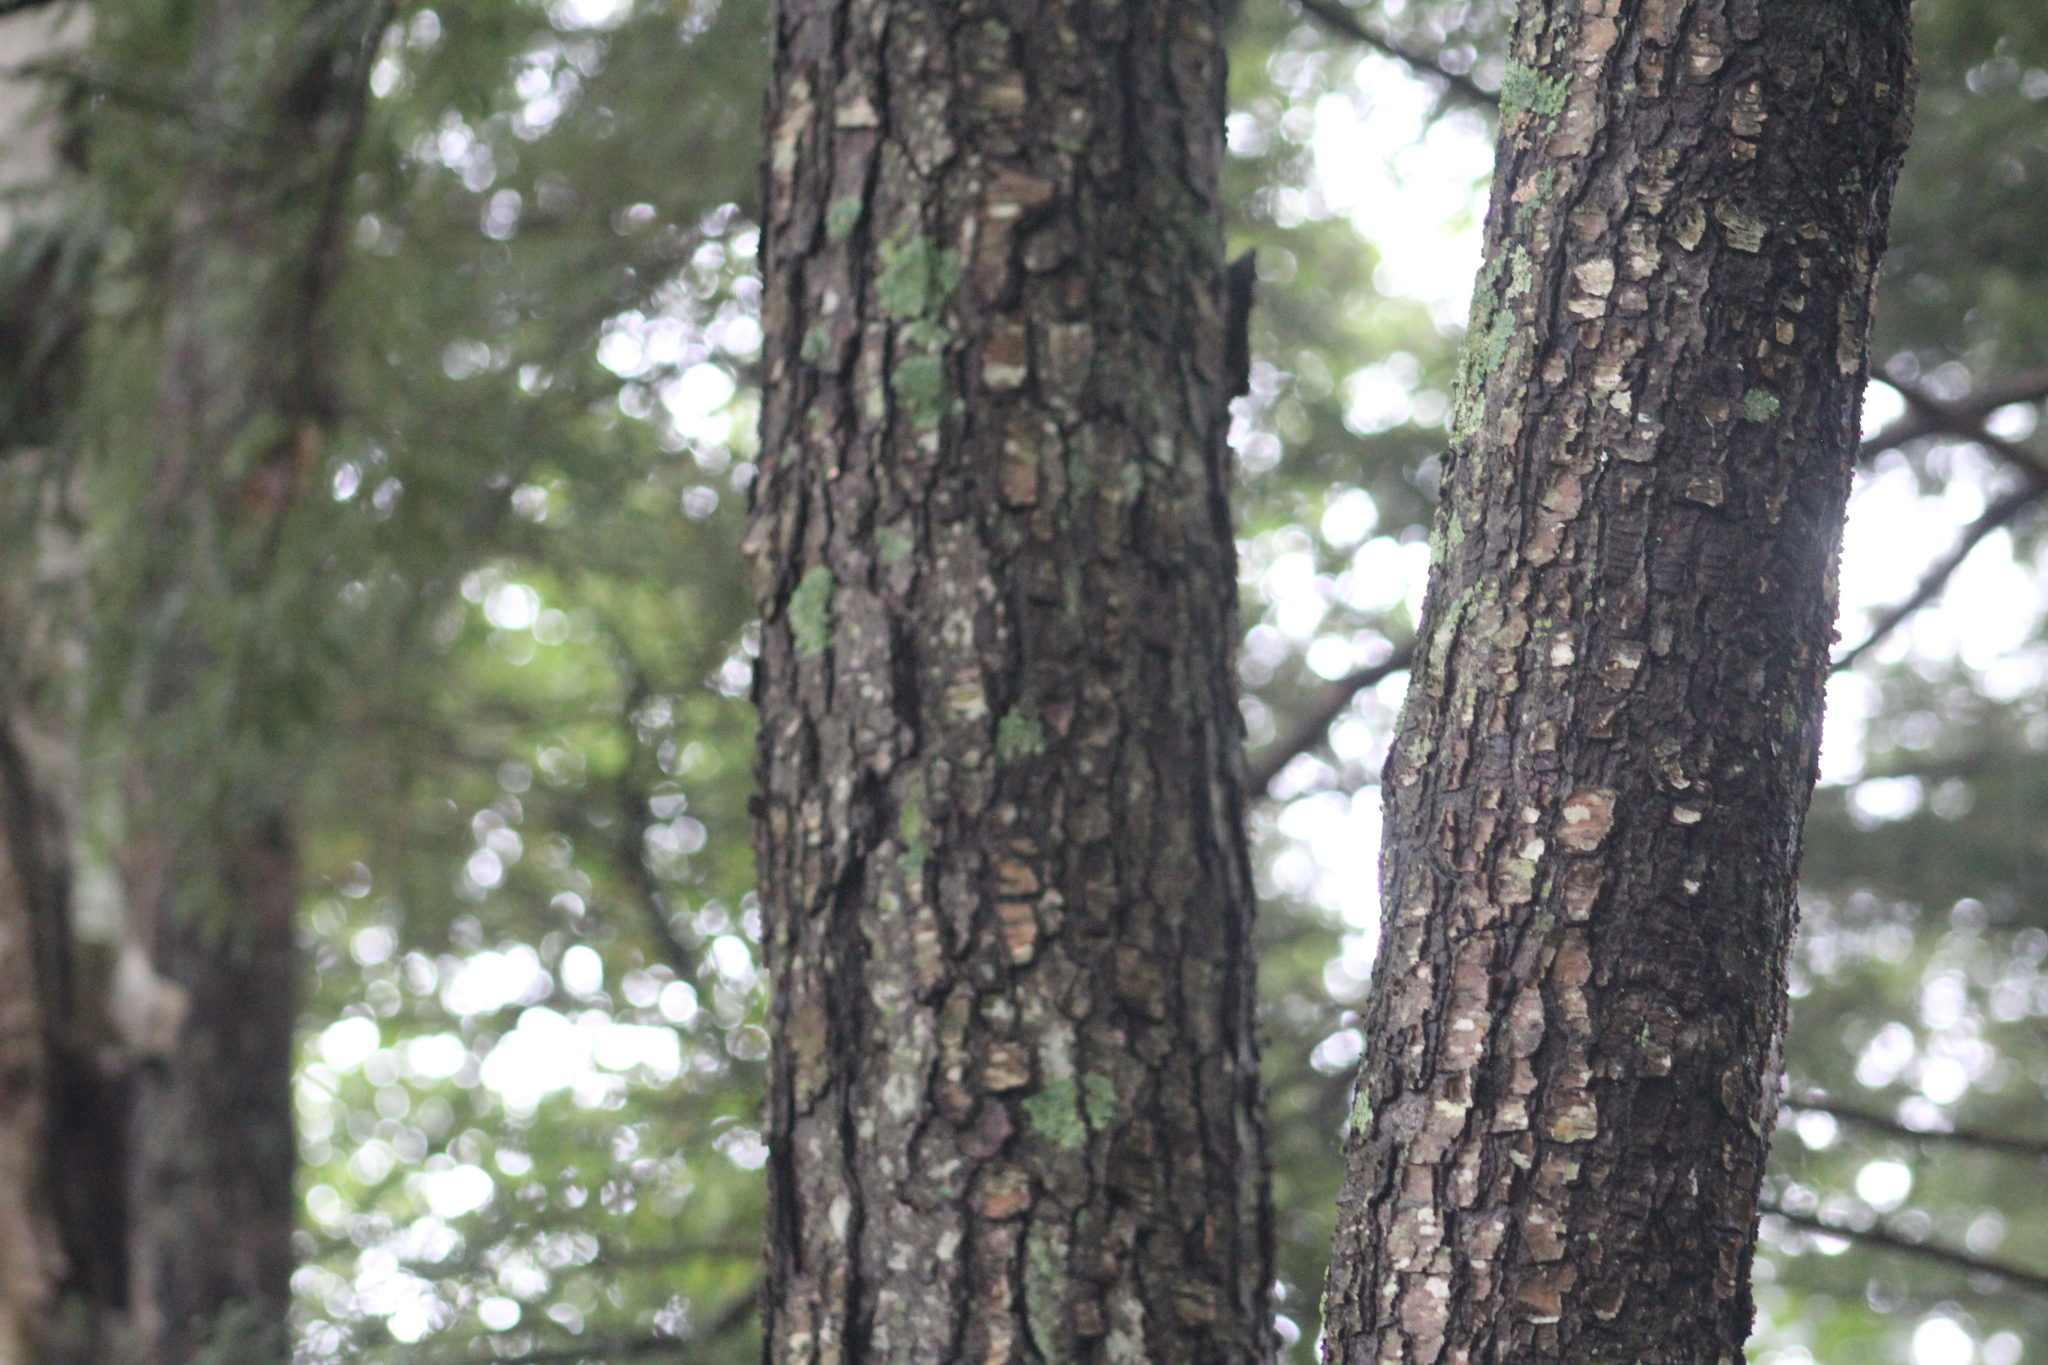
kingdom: Plantae
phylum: Tracheophyta
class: Magnoliopsida
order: Fagales
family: Betulaceae
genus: Betula
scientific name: Betula lenta
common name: Black birch
